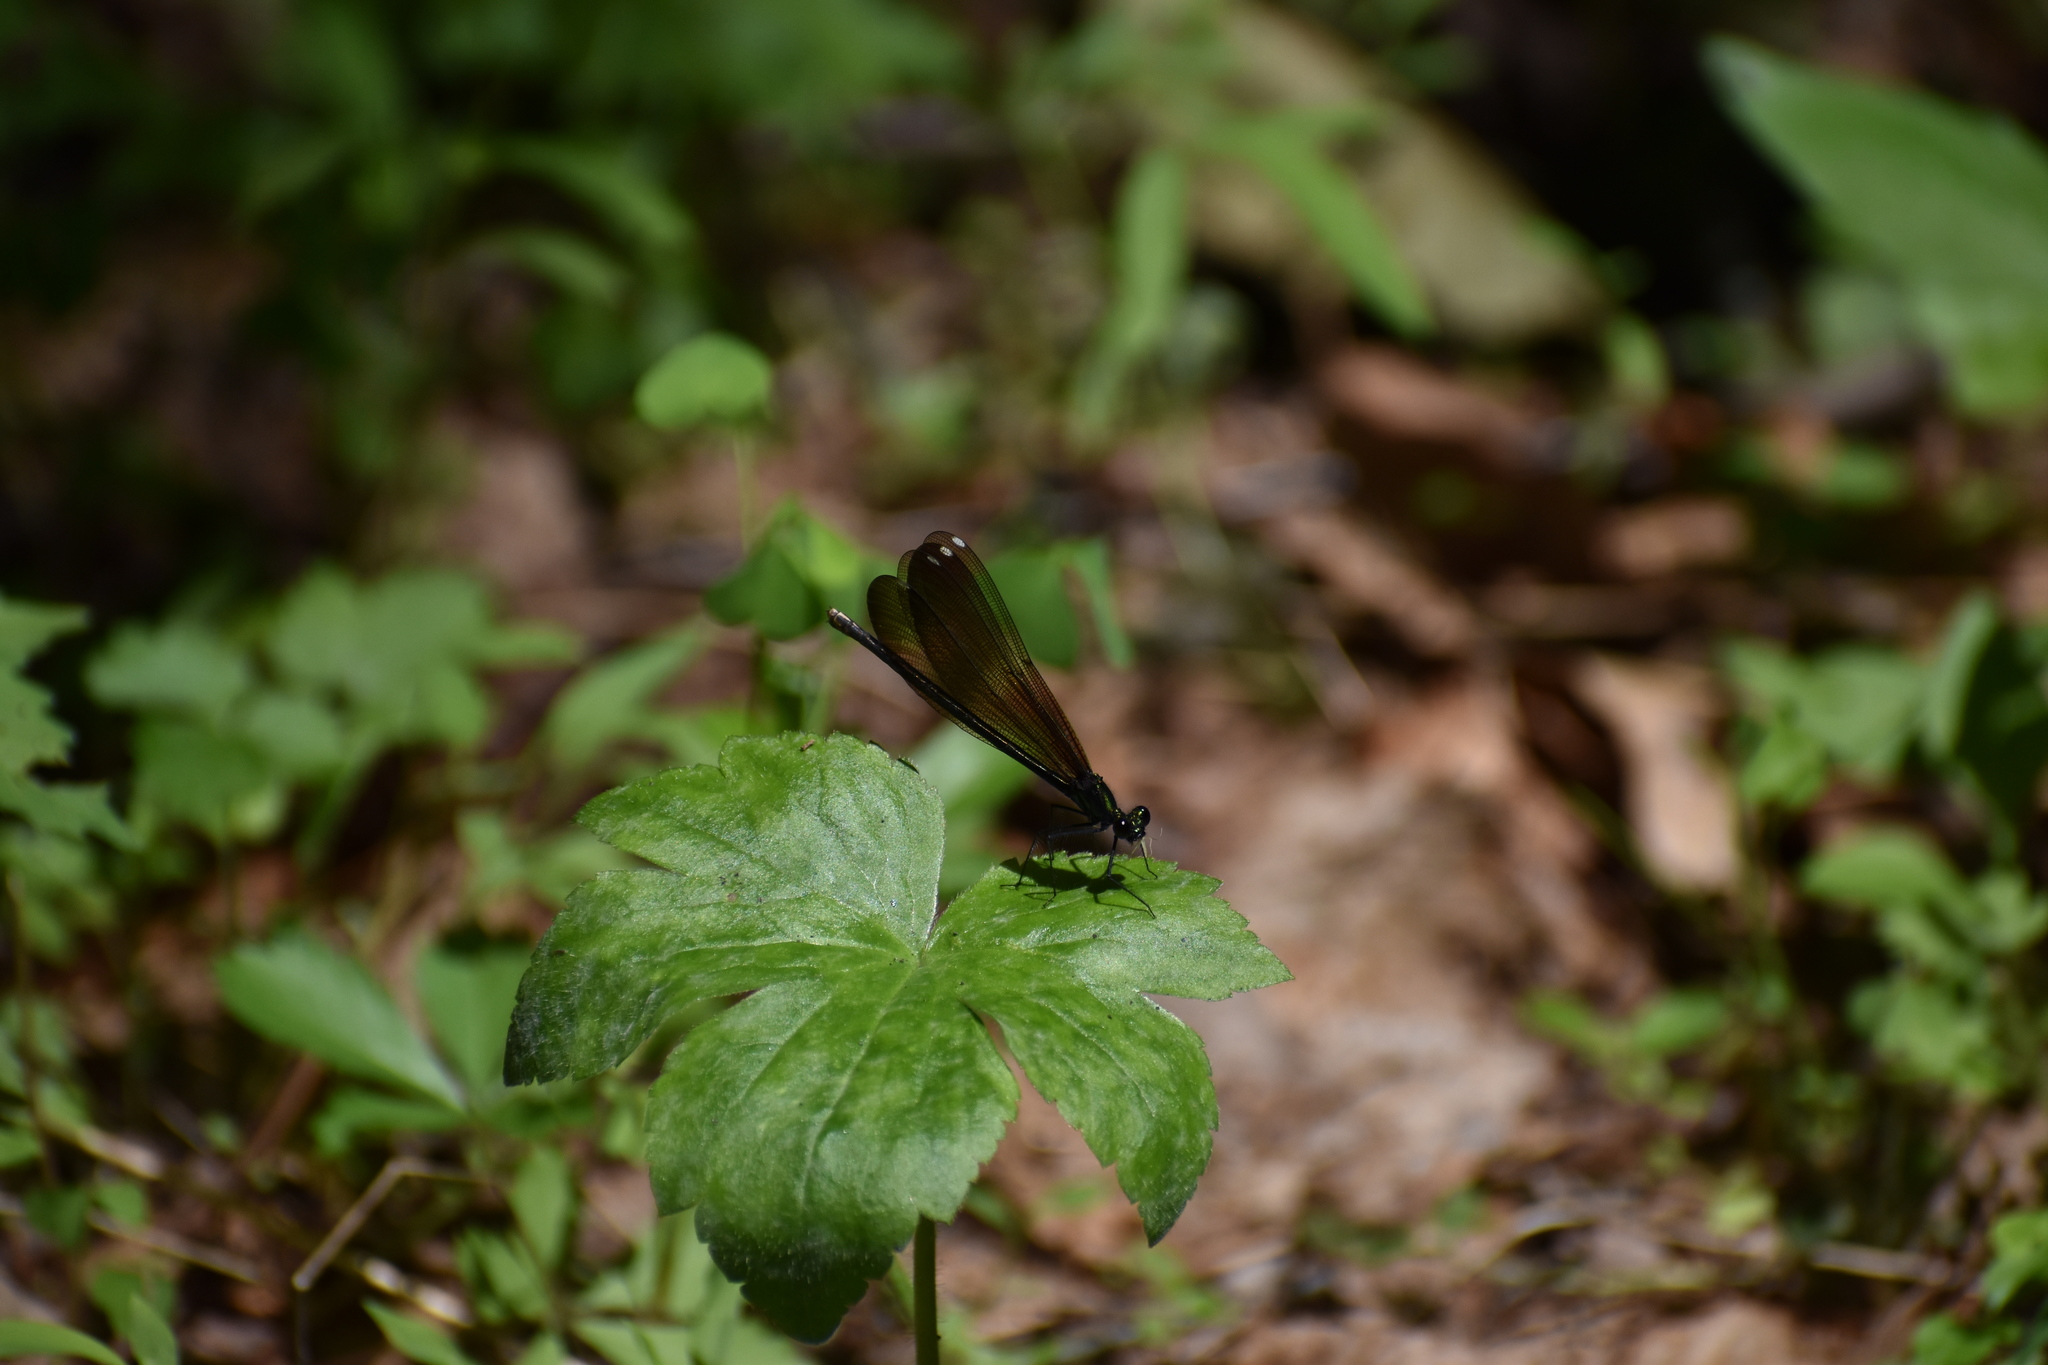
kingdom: Animalia
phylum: Arthropoda
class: Insecta
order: Odonata
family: Calopterygidae
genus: Calopteryx
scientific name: Calopteryx maculata
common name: Ebony jewelwing
